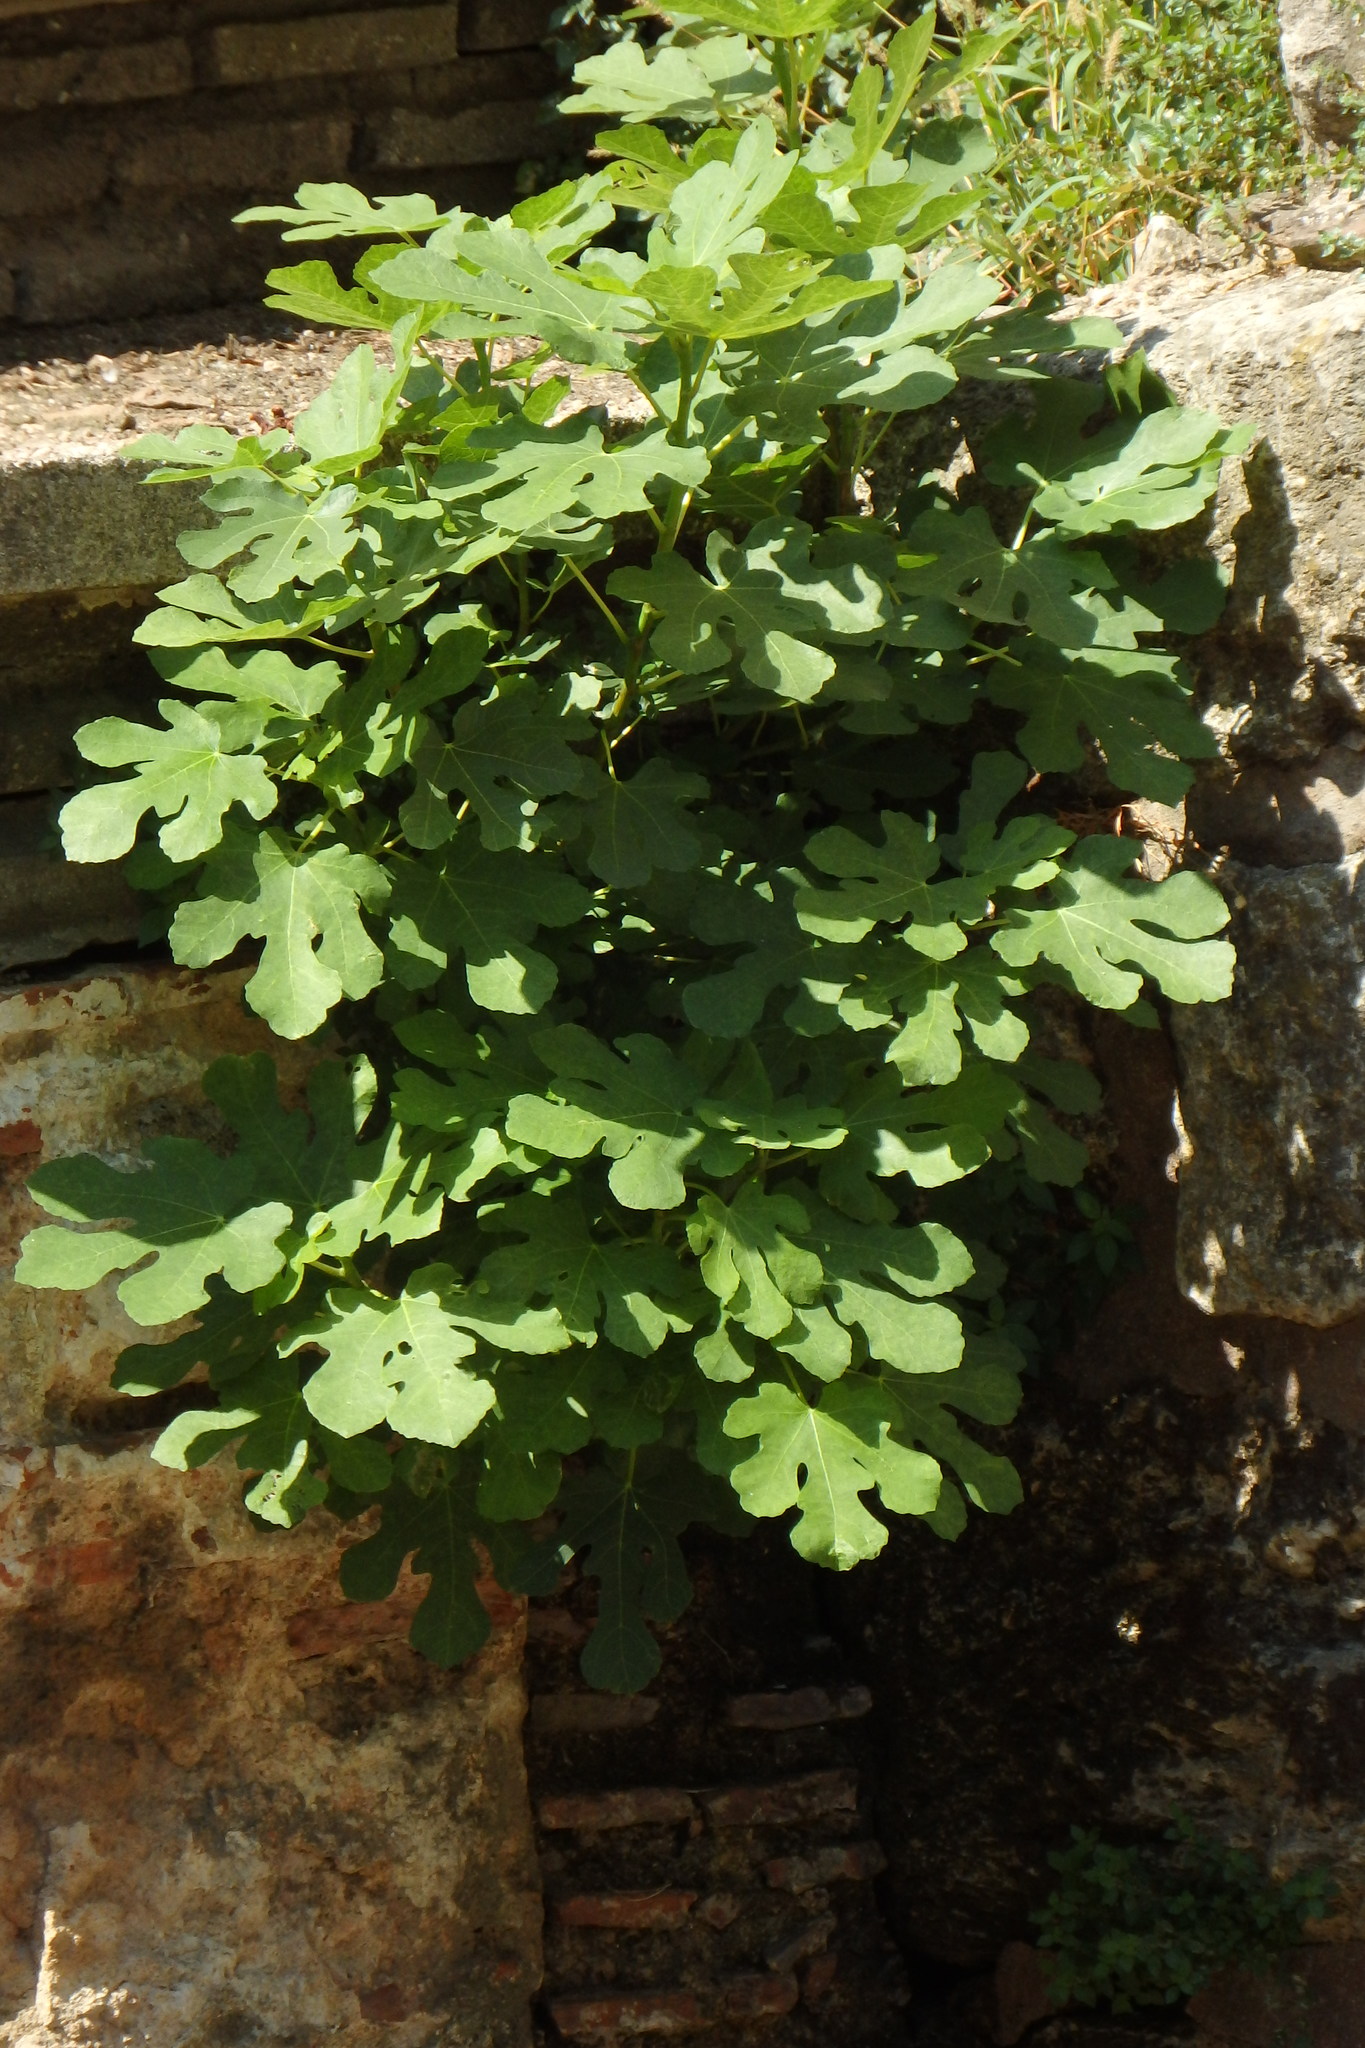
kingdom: Plantae
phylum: Tracheophyta
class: Magnoliopsida
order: Rosales
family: Moraceae
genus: Ficus
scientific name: Ficus carica
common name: Fig
